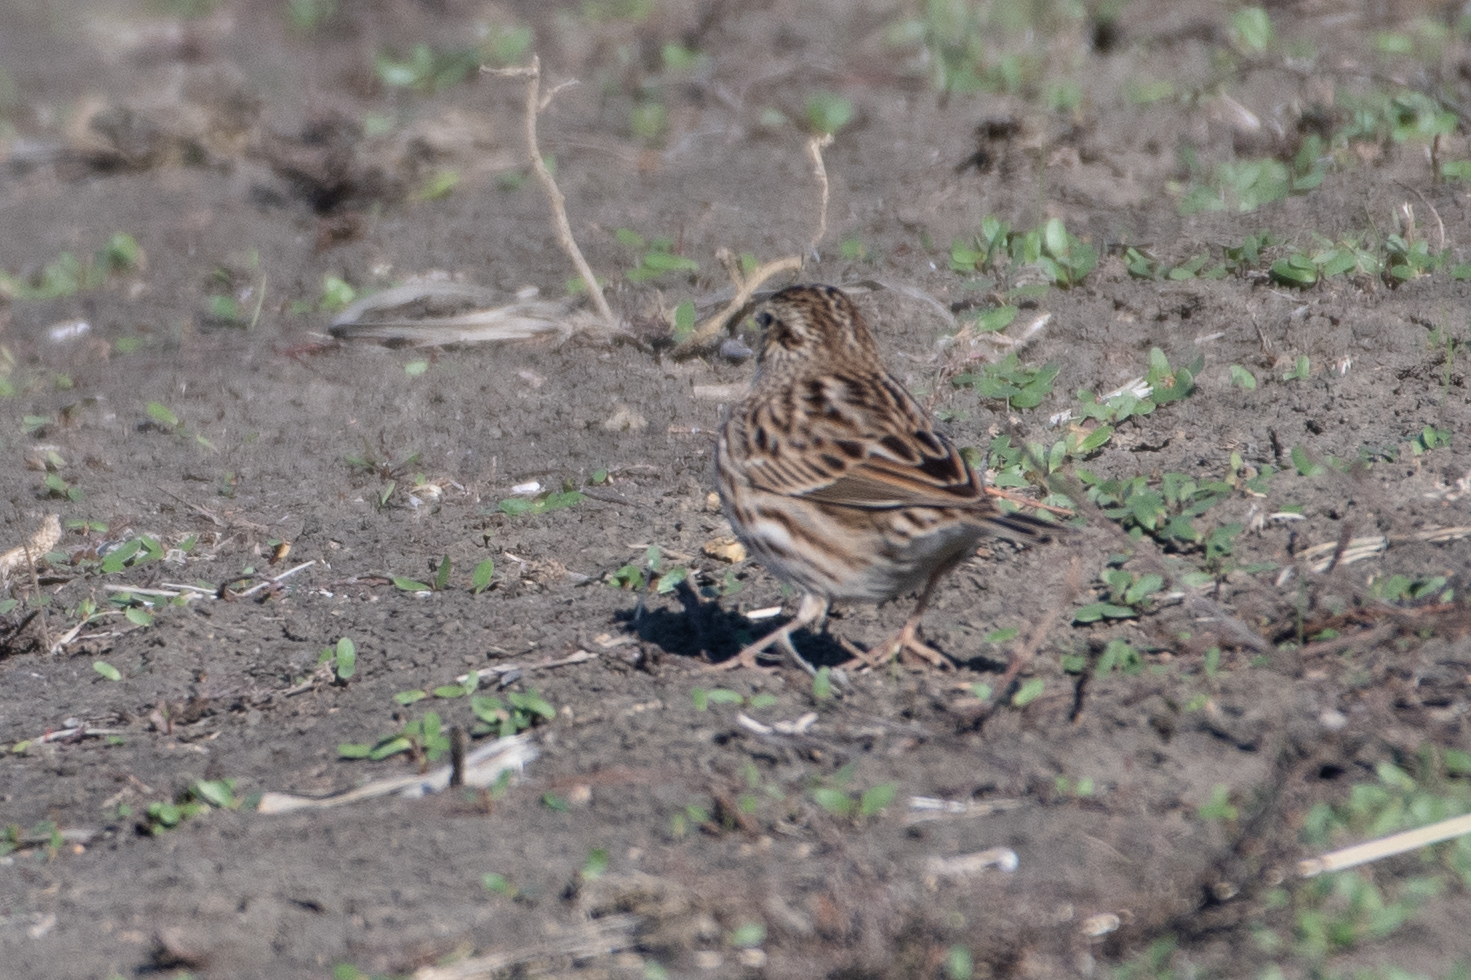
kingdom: Animalia
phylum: Chordata
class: Aves
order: Passeriformes
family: Passerellidae
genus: Passerculus
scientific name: Passerculus sandwichensis
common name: Savannah sparrow
